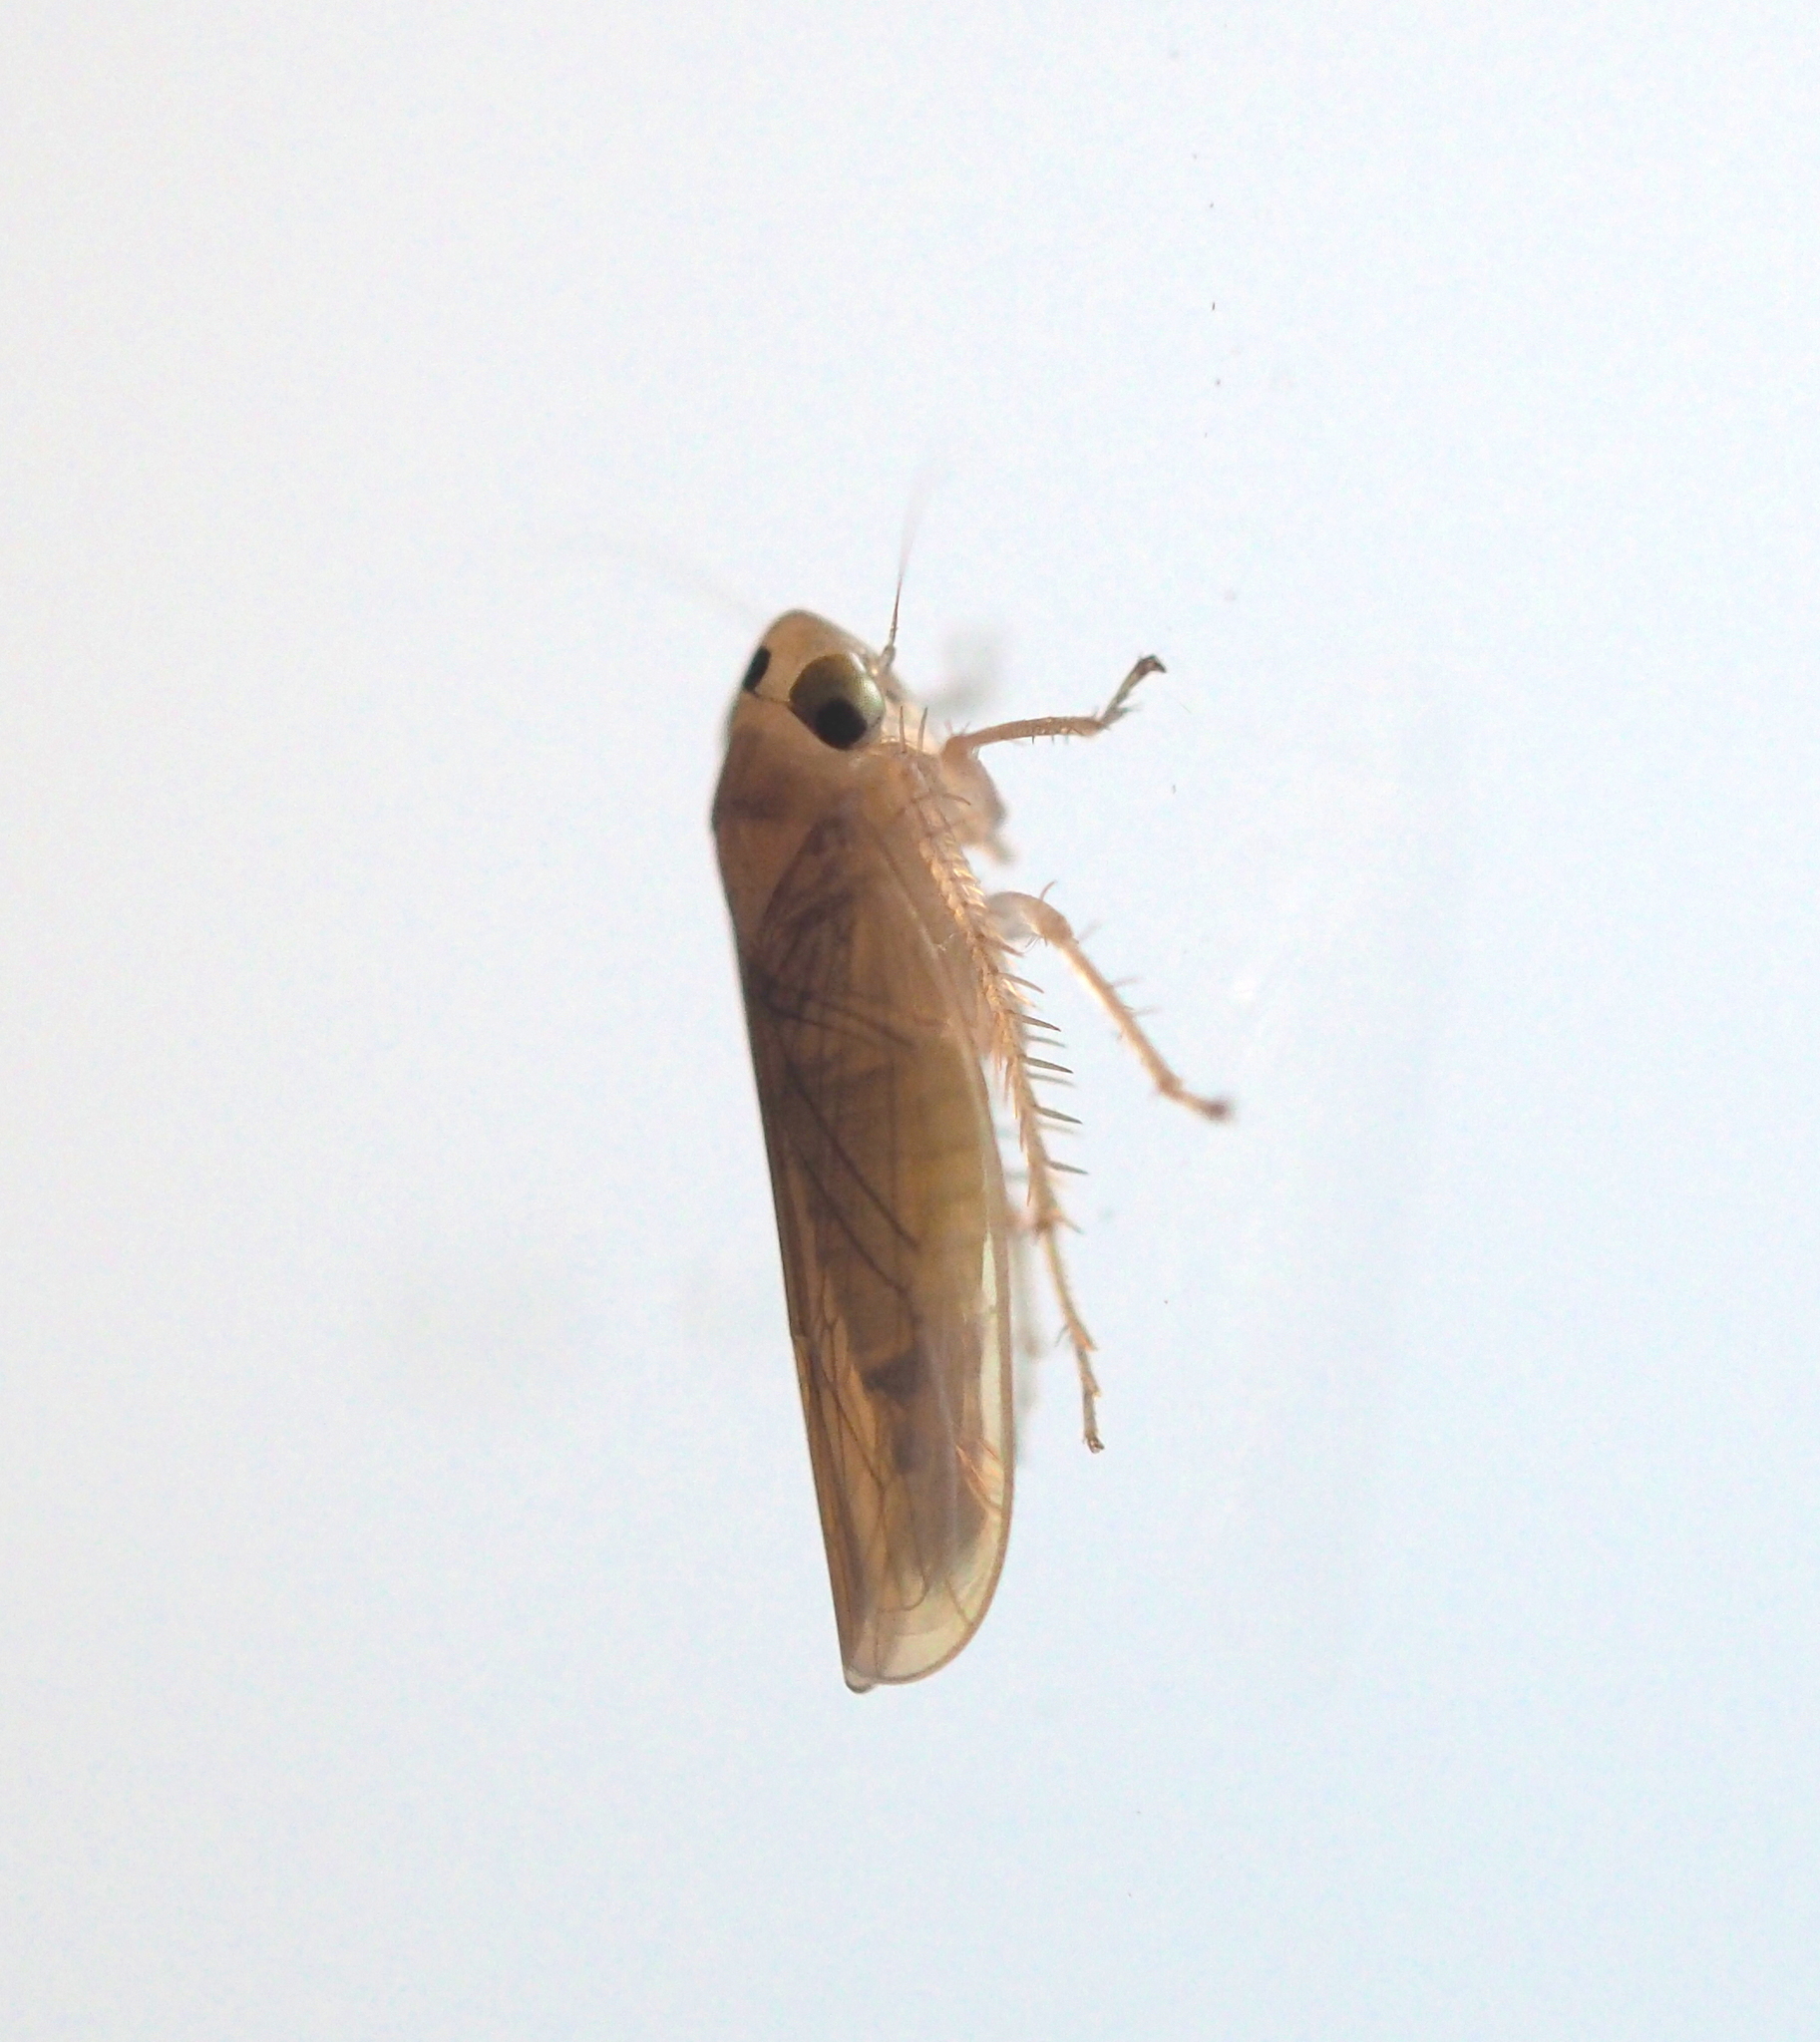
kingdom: Animalia
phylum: Arthropoda
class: Insecta
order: Hemiptera
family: Cicadellidae
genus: Phlogotettix
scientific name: Phlogotettix cyclops
